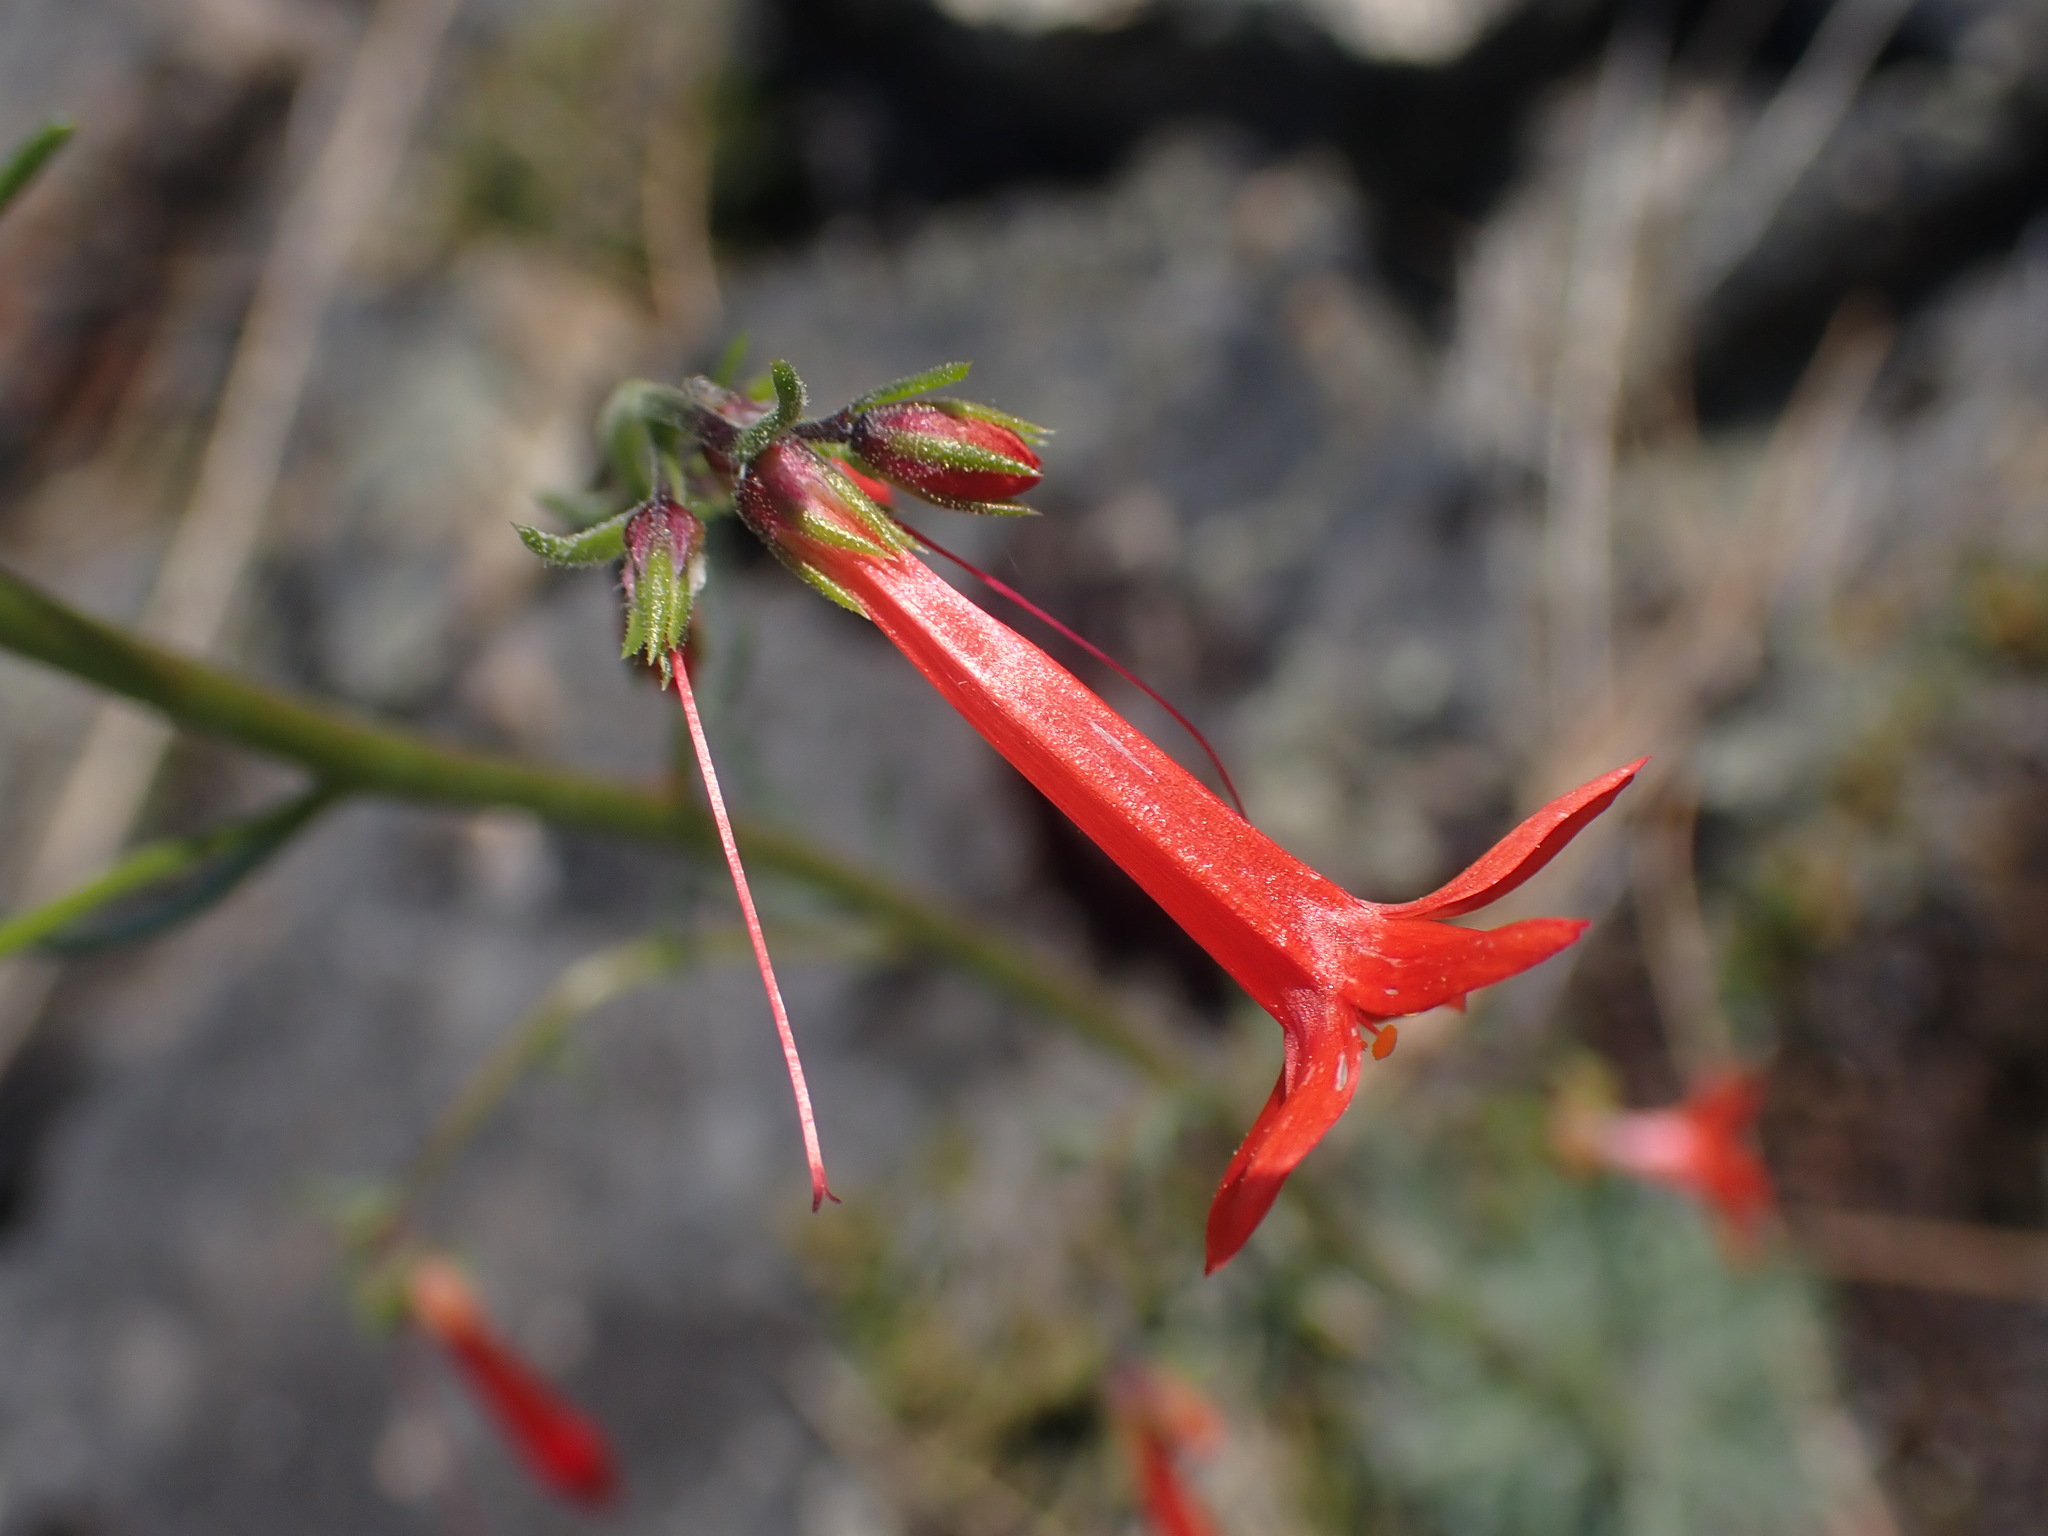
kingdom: Plantae
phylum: Tracheophyta
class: Magnoliopsida
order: Ericales
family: Polemoniaceae
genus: Ipomopsis
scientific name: Ipomopsis aggregata
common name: Scarlet gilia
